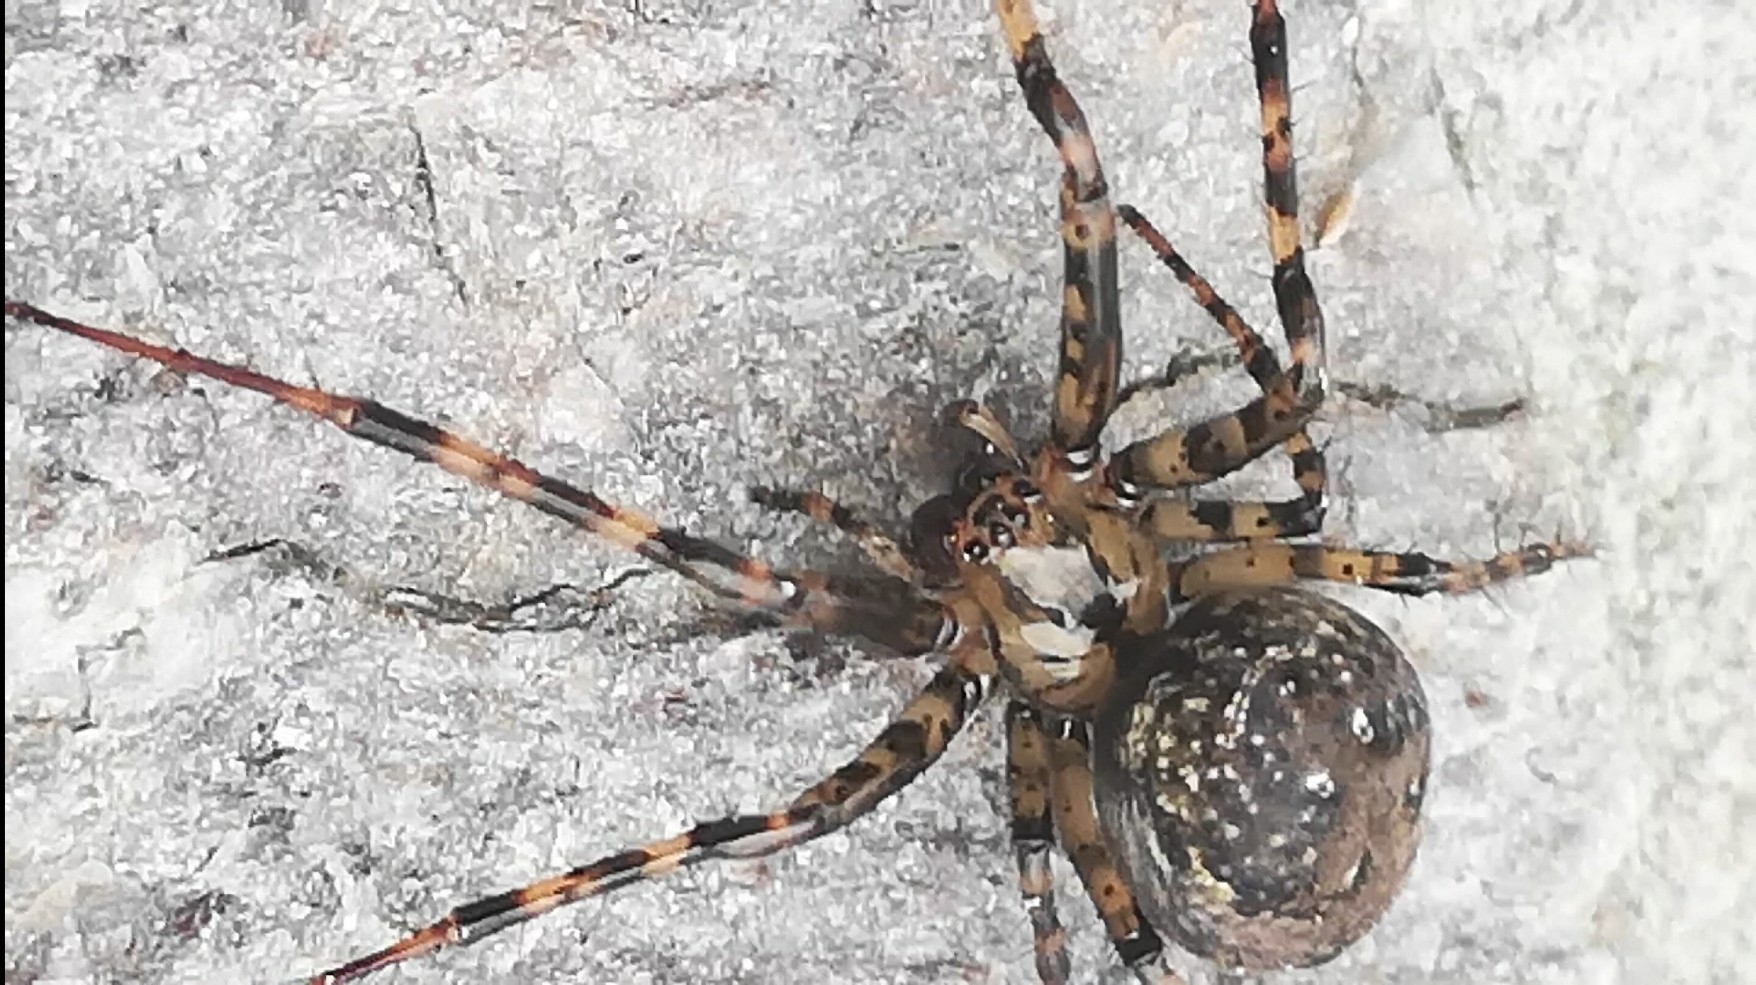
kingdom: Animalia
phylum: Arthropoda
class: Arachnida
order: Araneae
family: Tetragnathidae
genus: Metellina
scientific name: Metellina merianae
